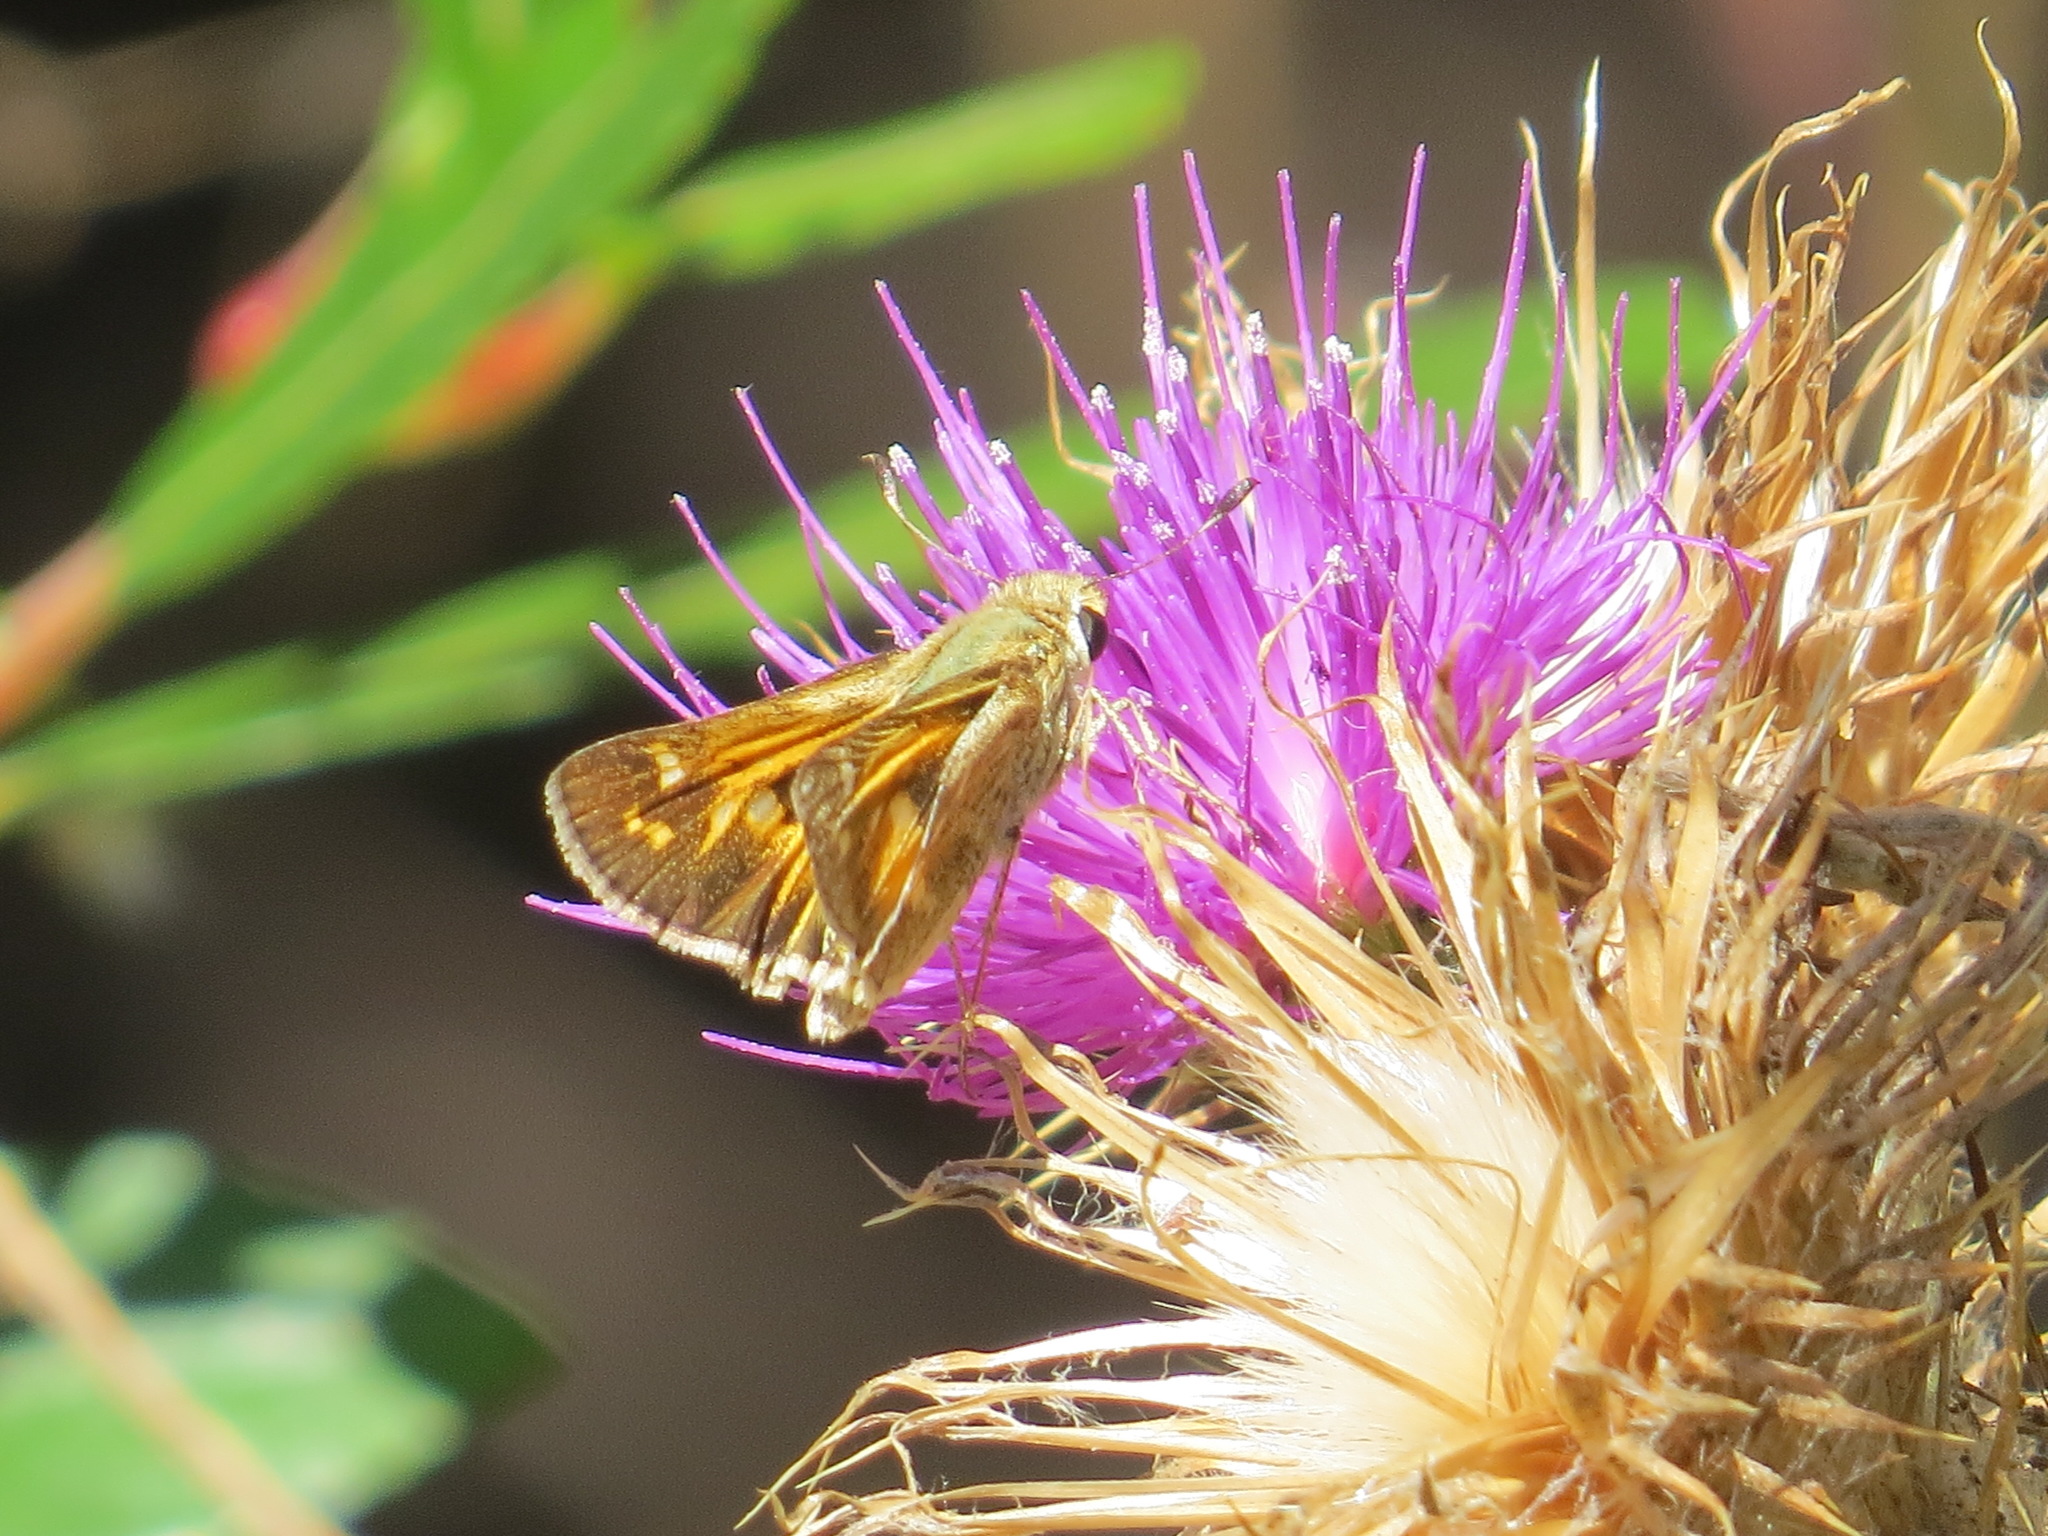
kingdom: Animalia
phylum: Arthropoda
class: Insecta
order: Lepidoptera
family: Hesperiidae
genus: Atalopedes
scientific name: Atalopedes campestris
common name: Sachem
